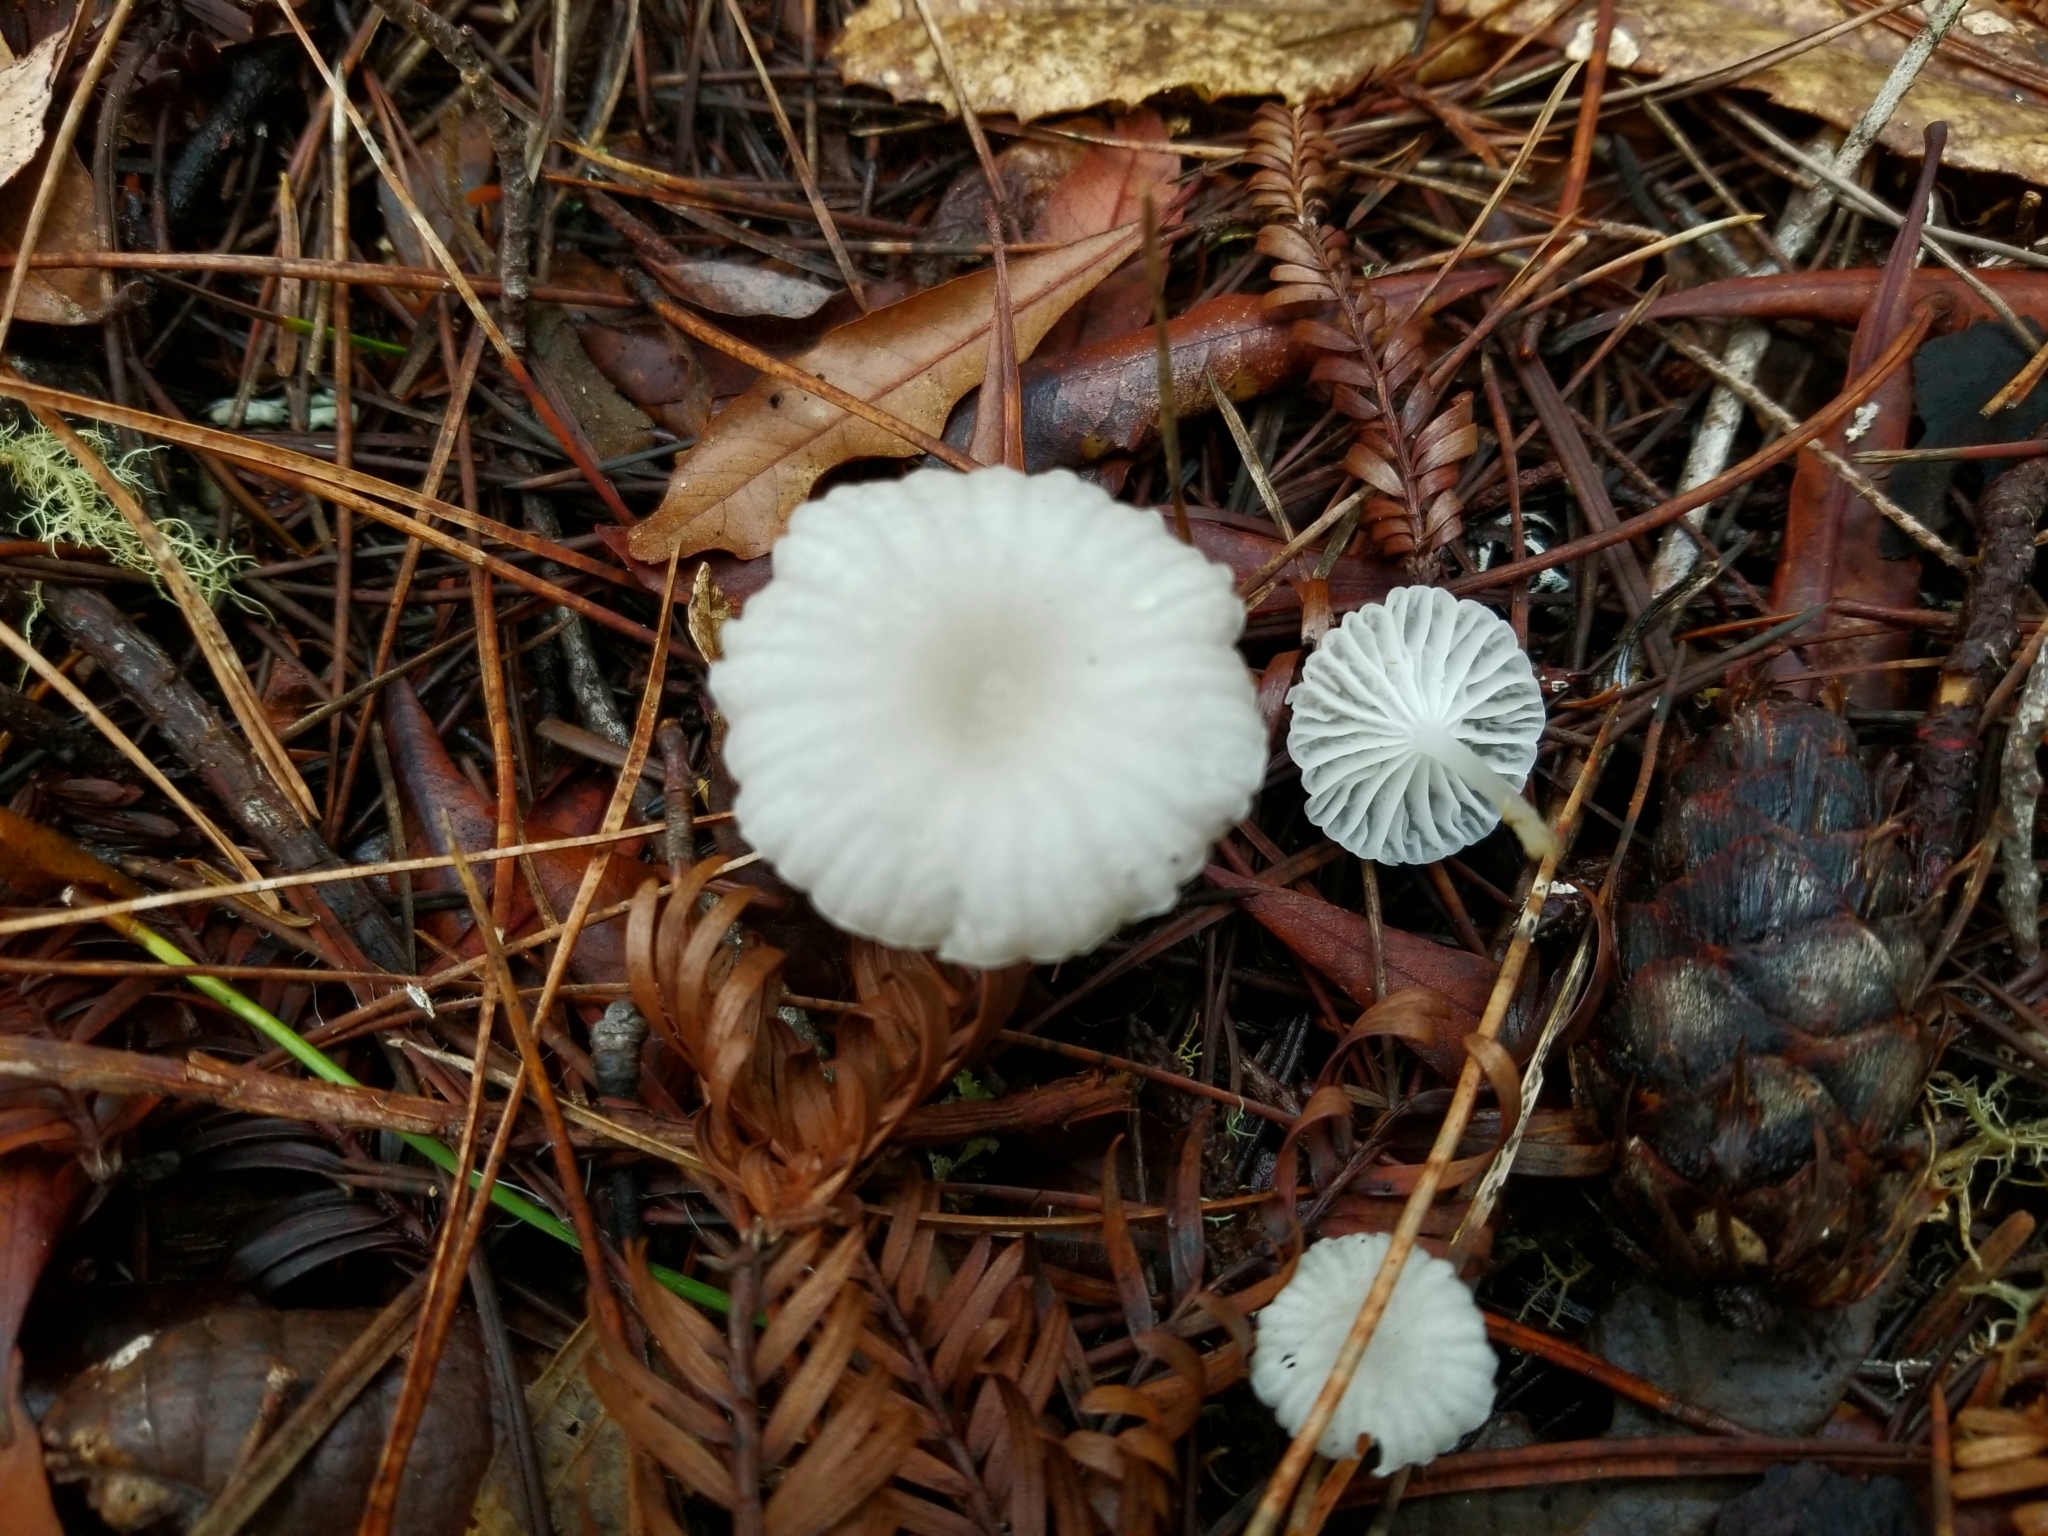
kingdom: Fungi
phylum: Basidiomycota
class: Agaricomycetes
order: Agaricales
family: Marasmiaceae
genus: Marasmius
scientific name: Marasmius calhouniae
